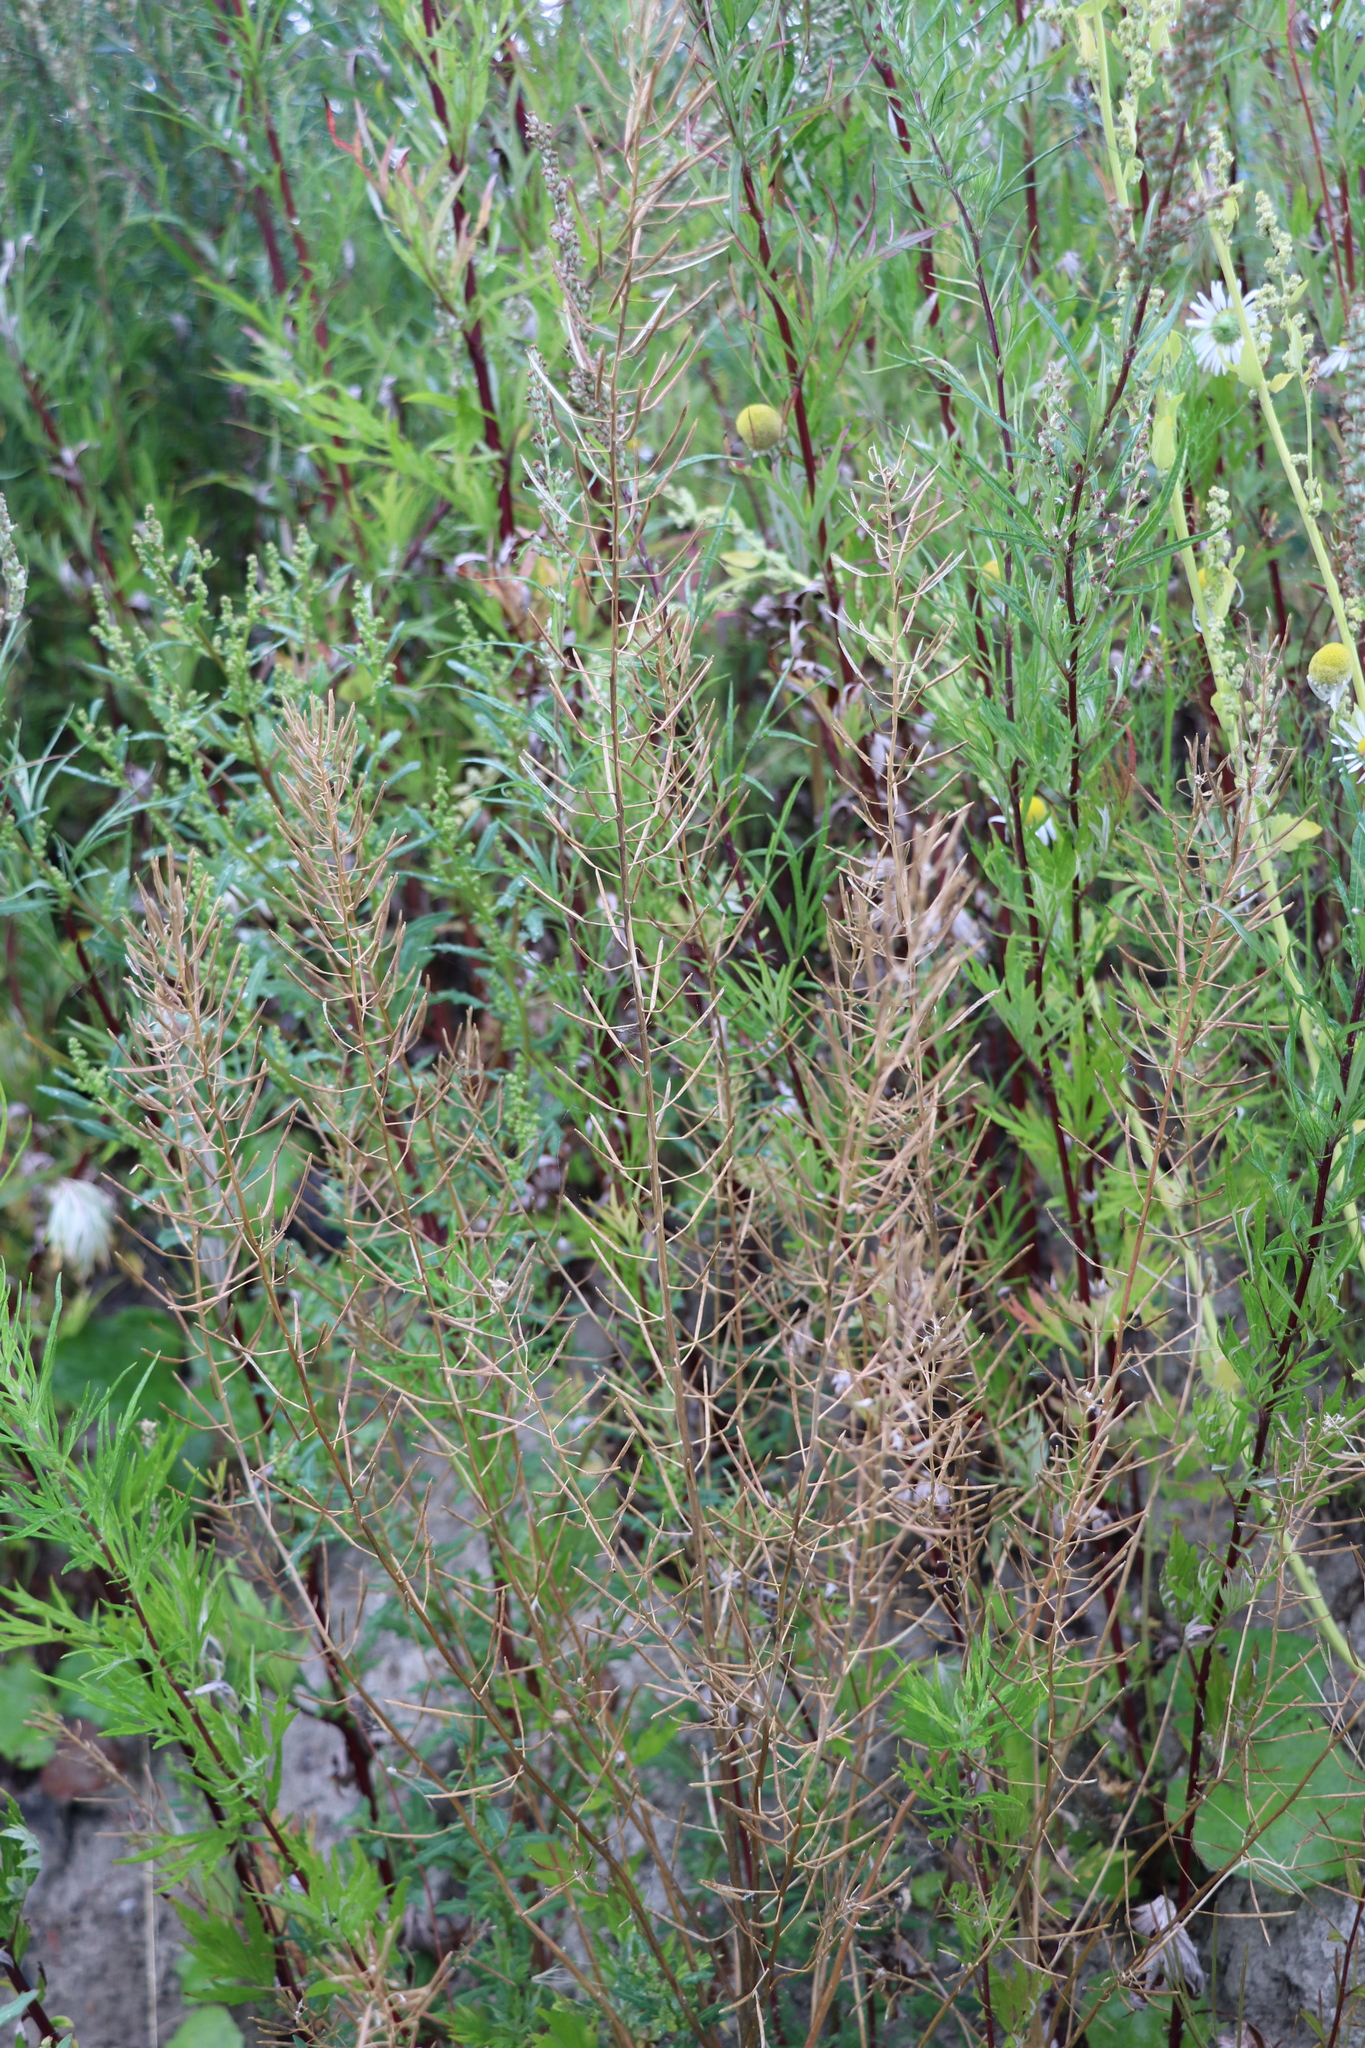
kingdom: Plantae
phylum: Tracheophyta
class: Magnoliopsida
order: Brassicales
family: Brassicaceae
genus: Erysimum
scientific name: Erysimum cheiranthoides
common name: Treacle mustard
